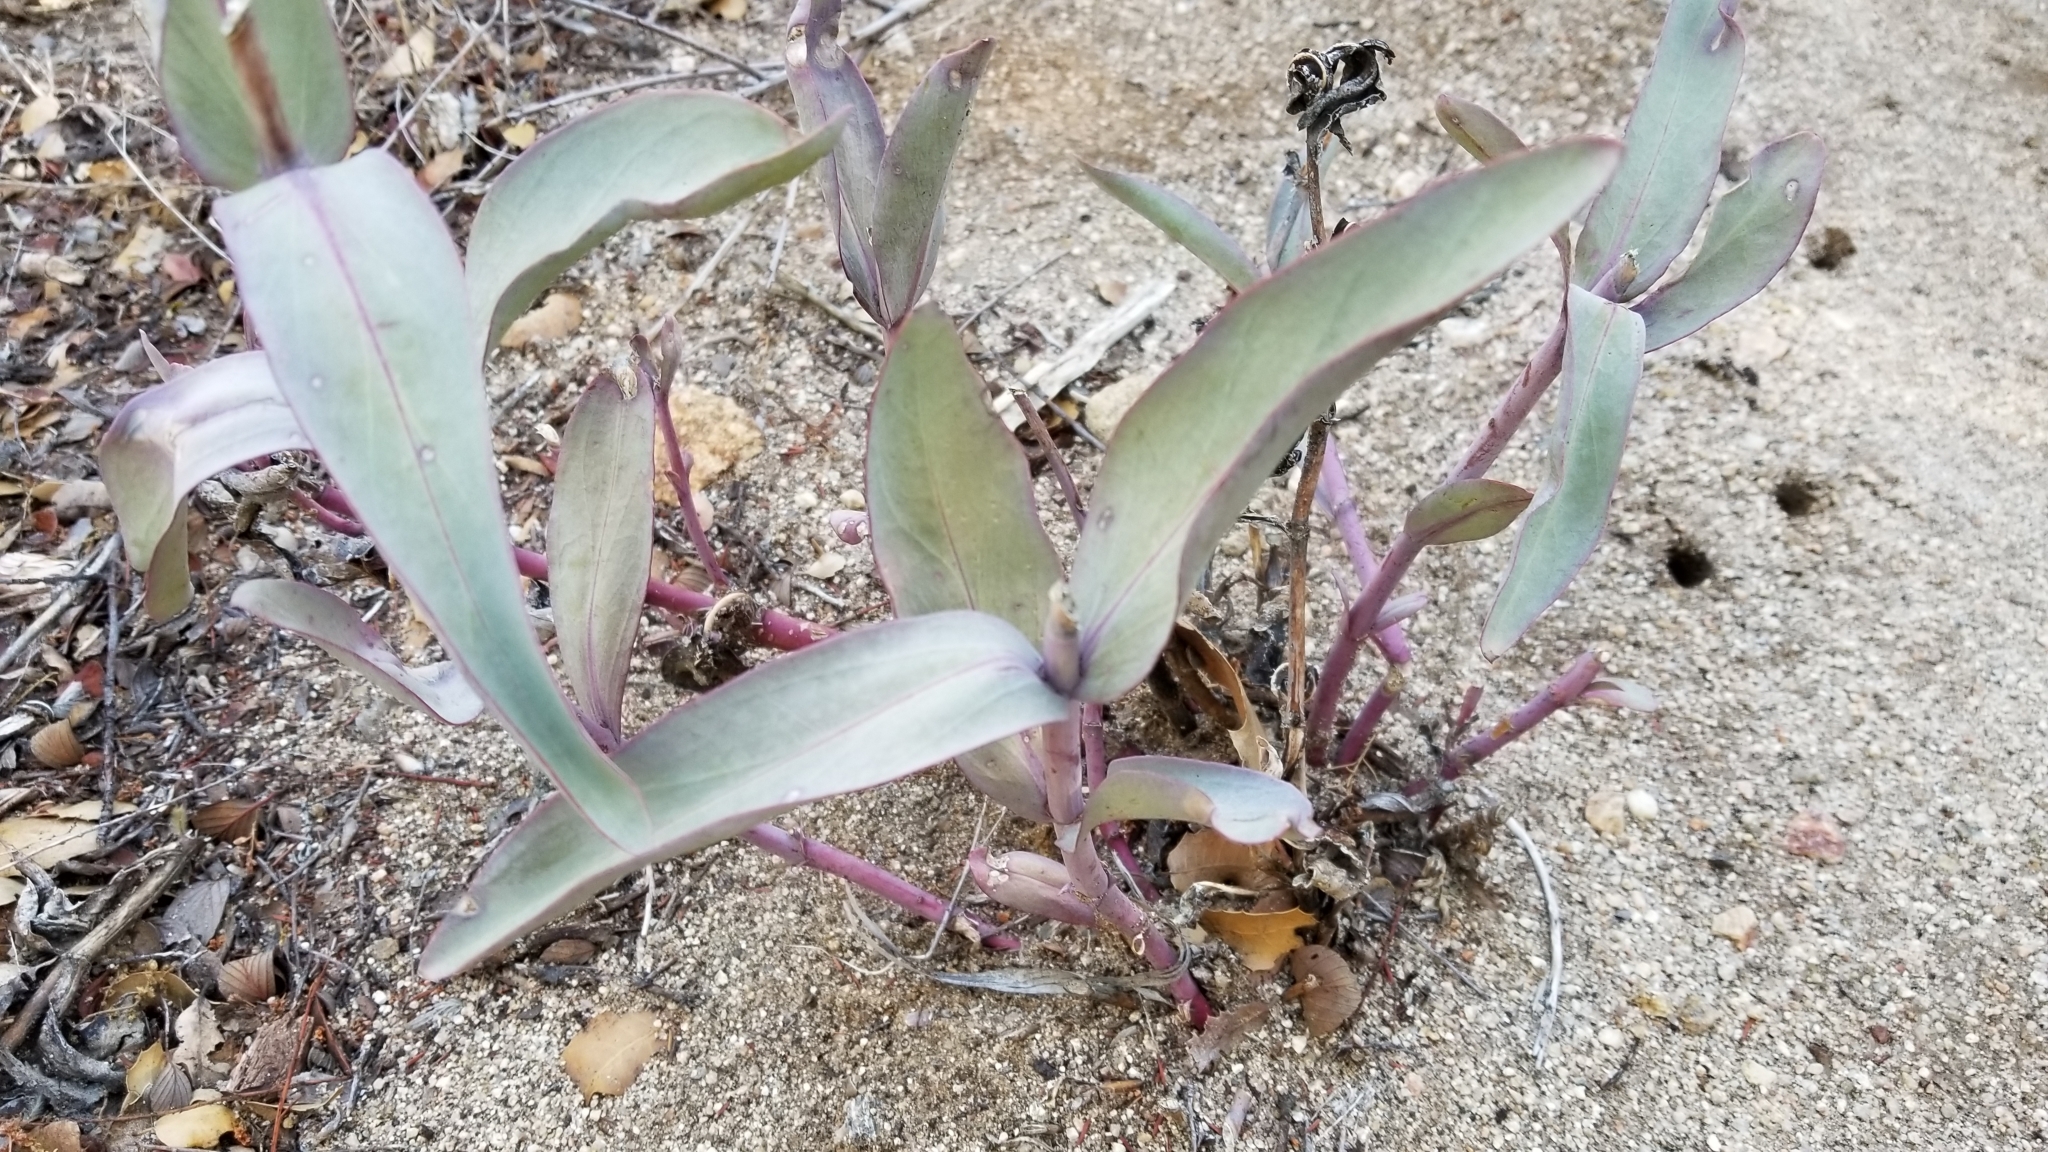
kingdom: Plantae
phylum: Tracheophyta
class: Magnoliopsida
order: Lamiales
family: Plantaginaceae
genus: Penstemon
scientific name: Penstemon centranthifolius
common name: Scarlet bugler
